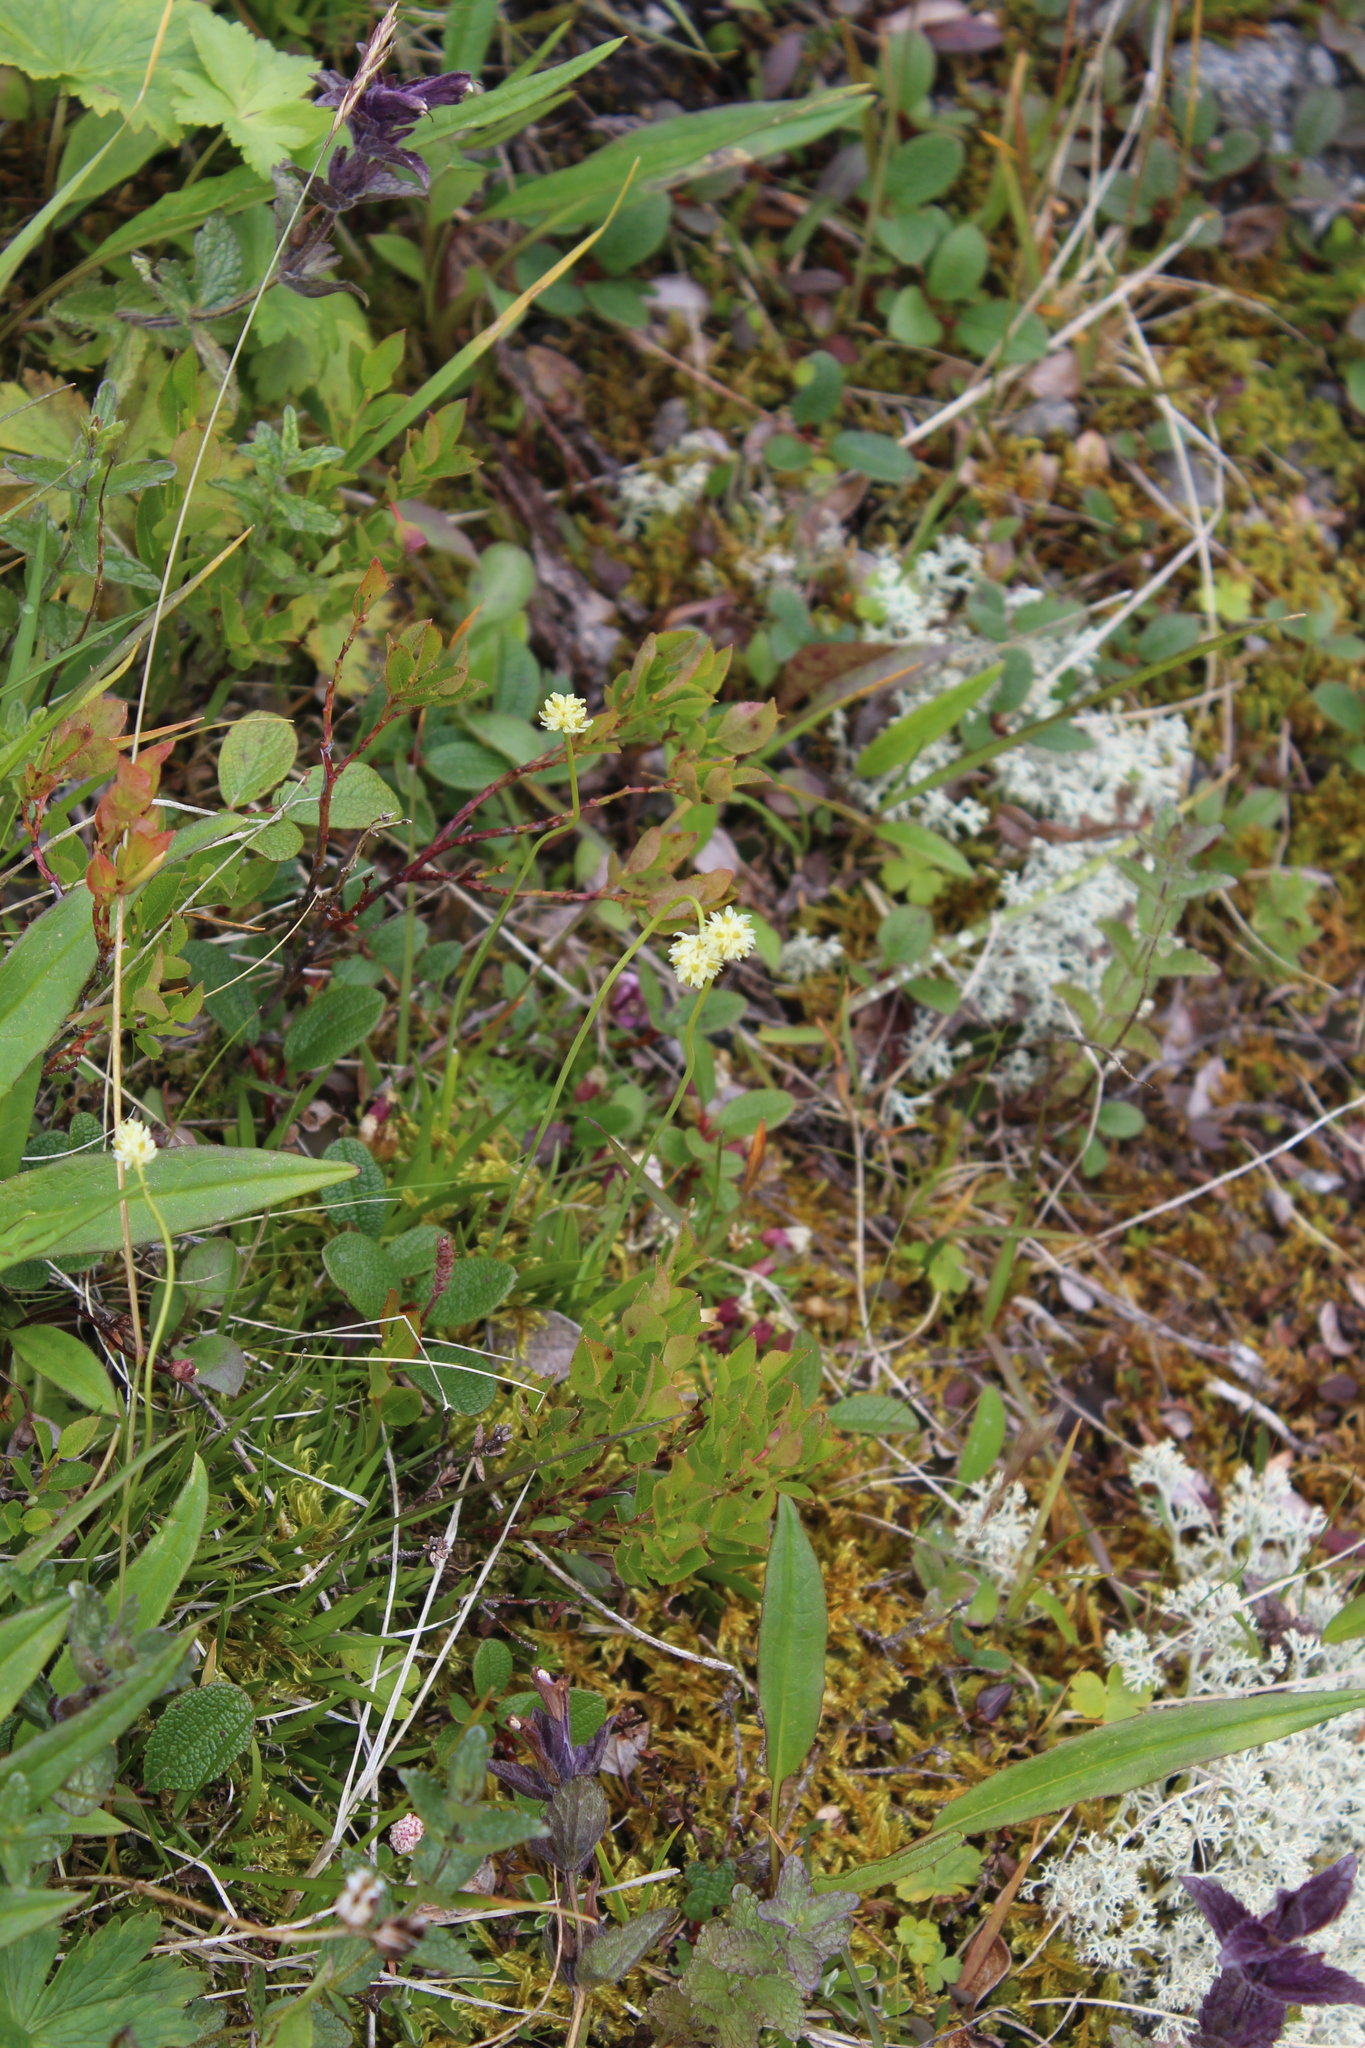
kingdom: Plantae
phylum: Tracheophyta
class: Liliopsida
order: Alismatales
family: Tofieldiaceae
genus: Tofieldia
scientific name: Tofieldia pusilla
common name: Scottish false asphodel
